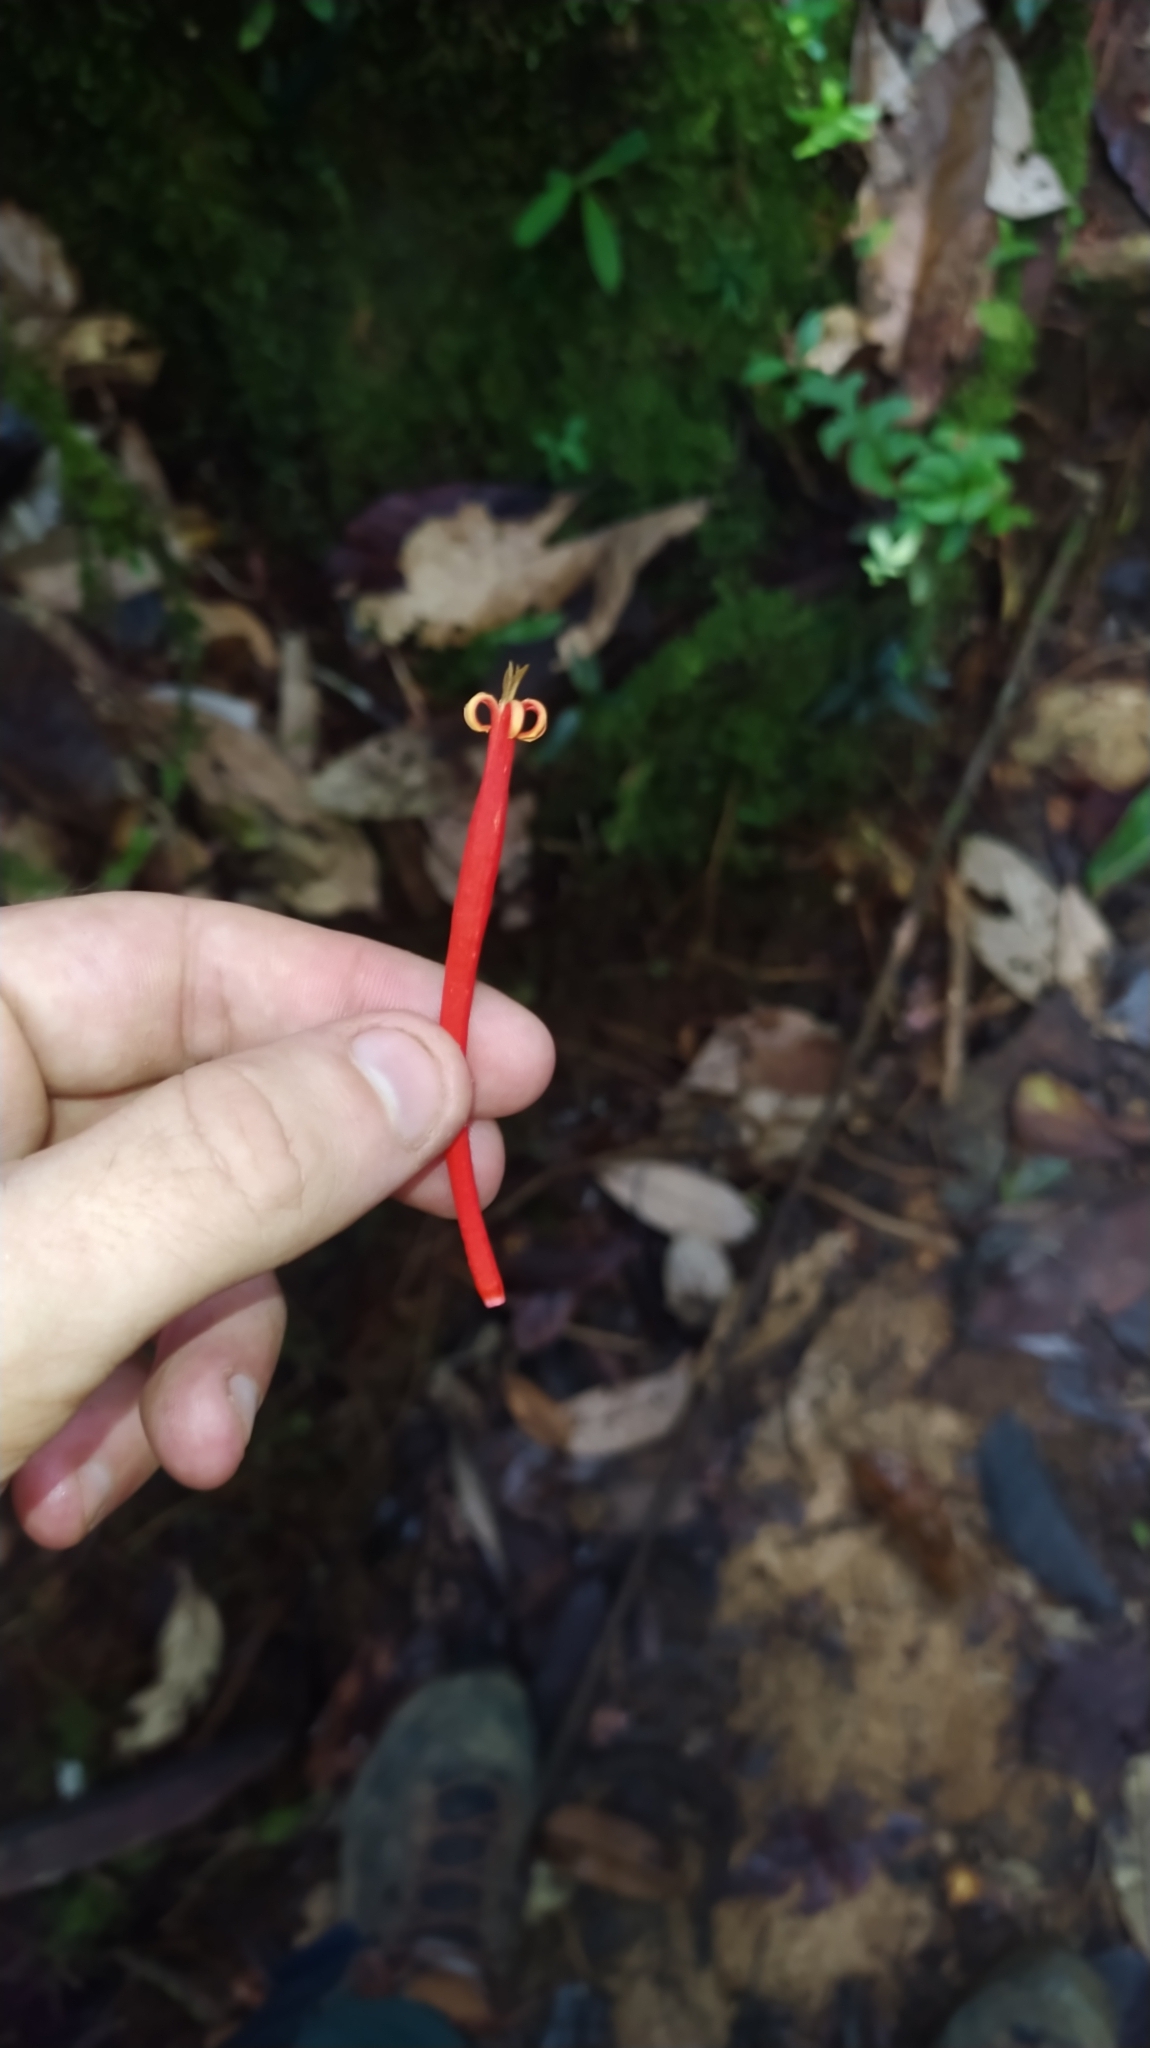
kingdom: Plantae
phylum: Tracheophyta
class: Magnoliopsida
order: Santalales
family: Loranthaceae
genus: Psittacanthus
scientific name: Psittacanthus
